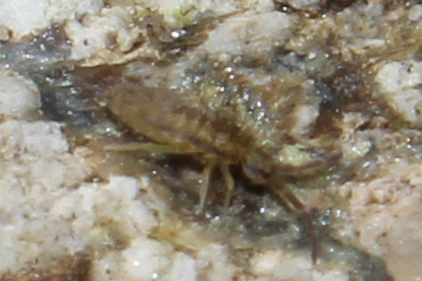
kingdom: Animalia
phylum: Arthropoda
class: Collembola
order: Entomobryomorpha
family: Entomobryidae
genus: Homidia
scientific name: Homidia socia
